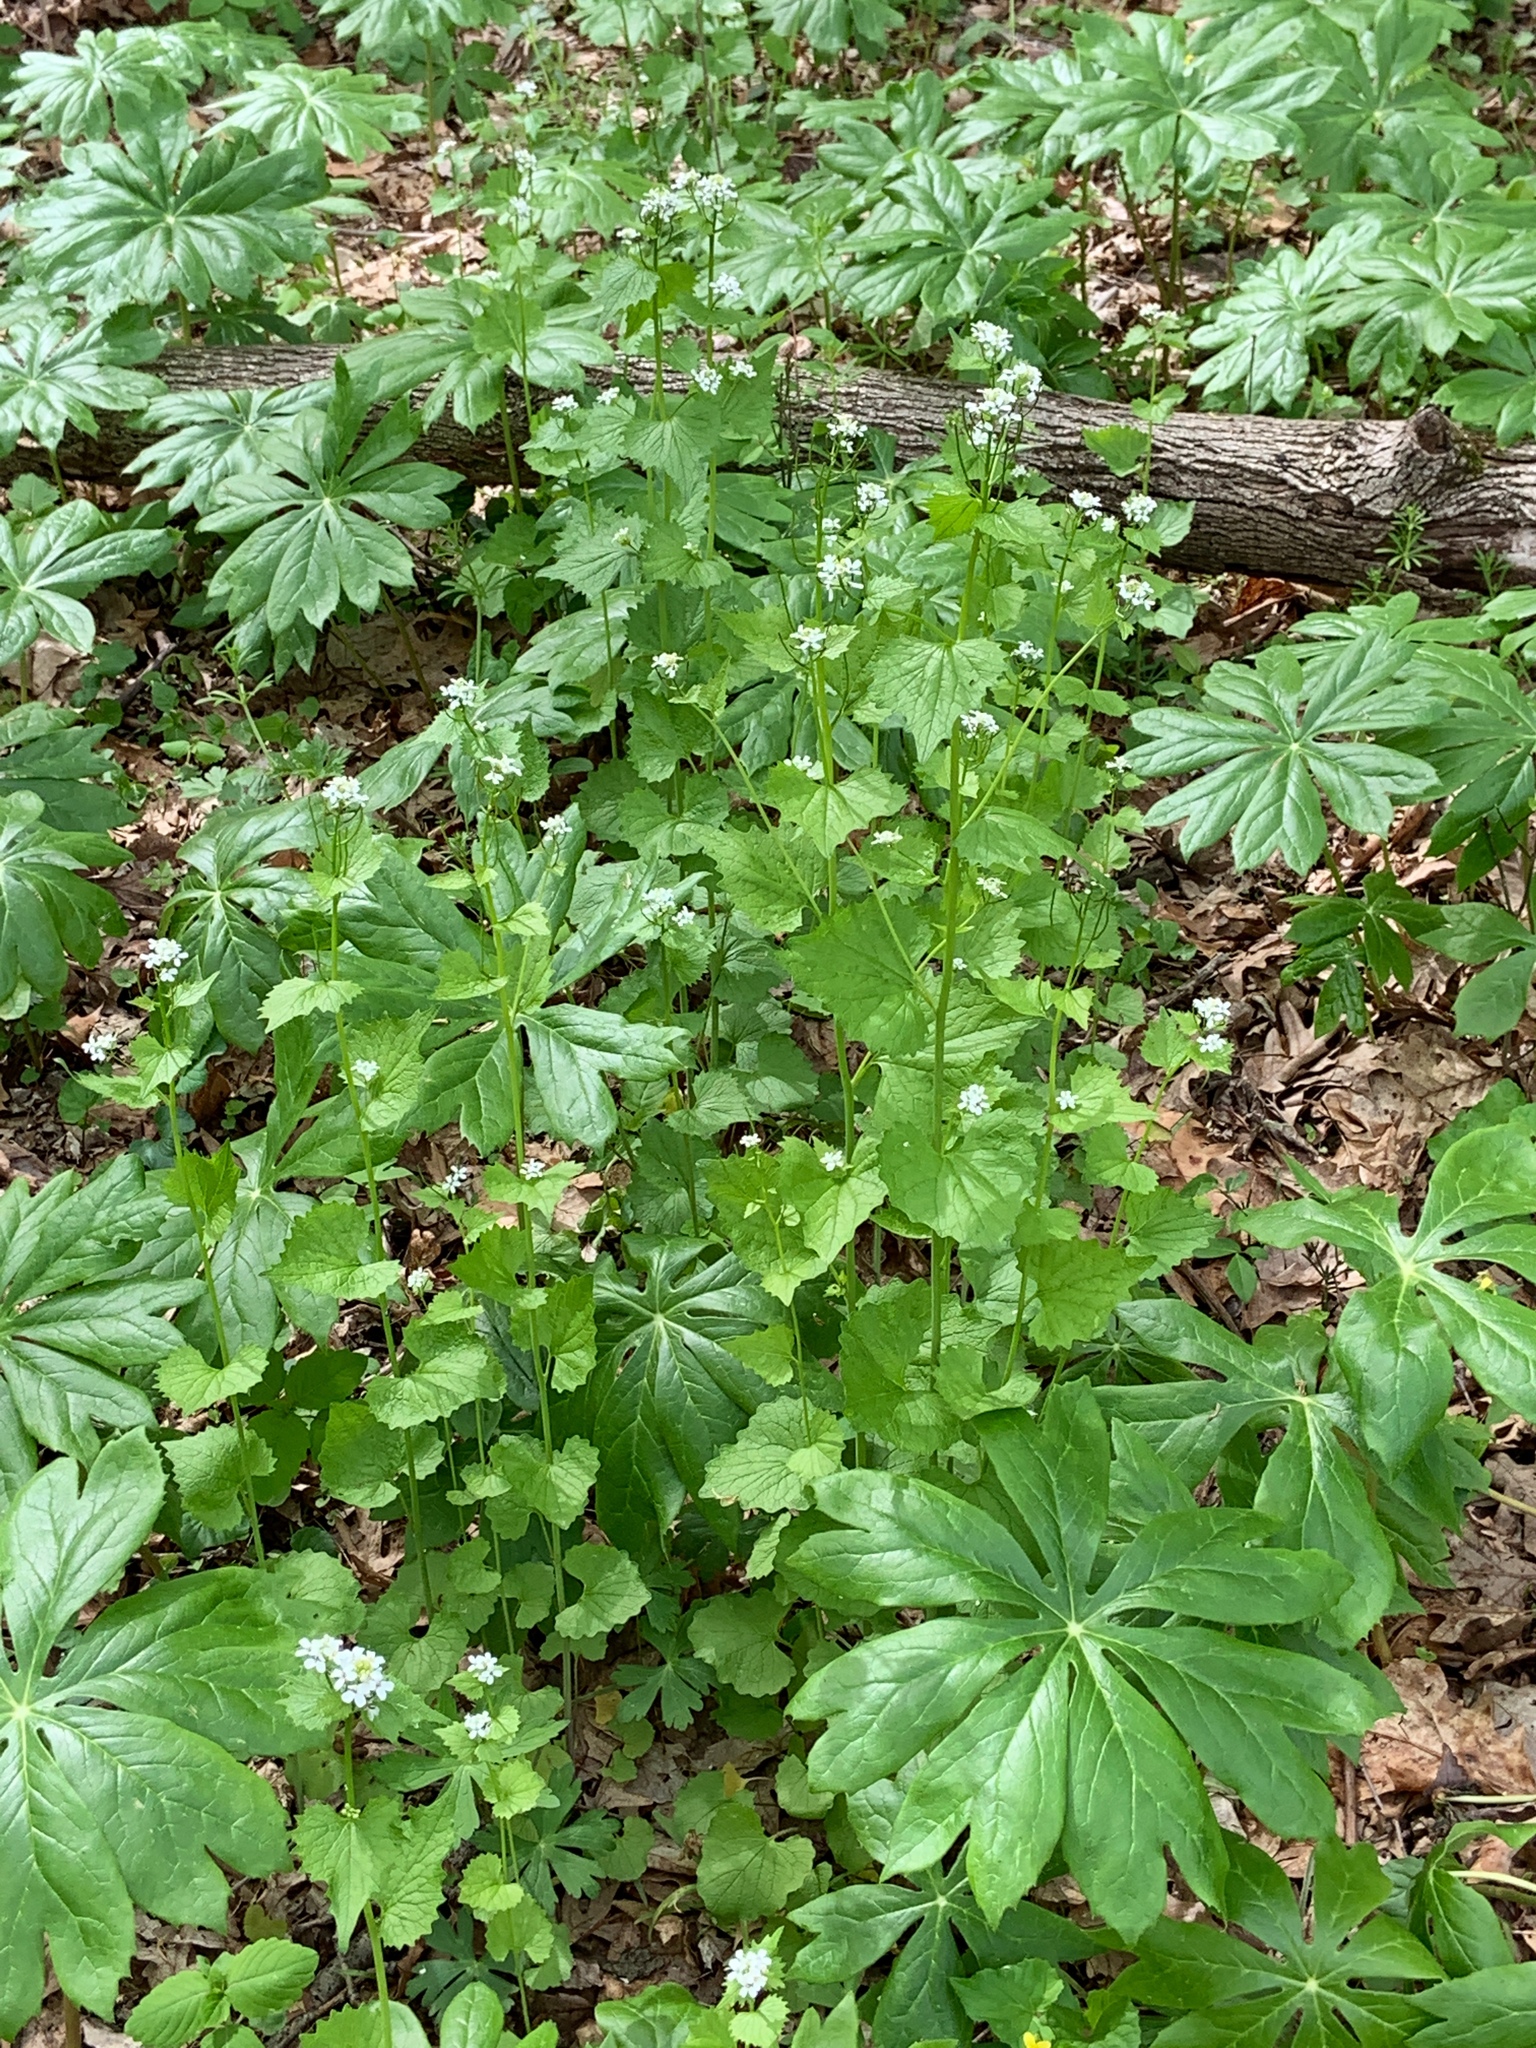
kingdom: Plantae
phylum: Tracheophyta
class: Magnoliopsida
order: Brassicales
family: Brassicaceae
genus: Alliaria
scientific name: Alliaria petiolata
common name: Garlic mustard
